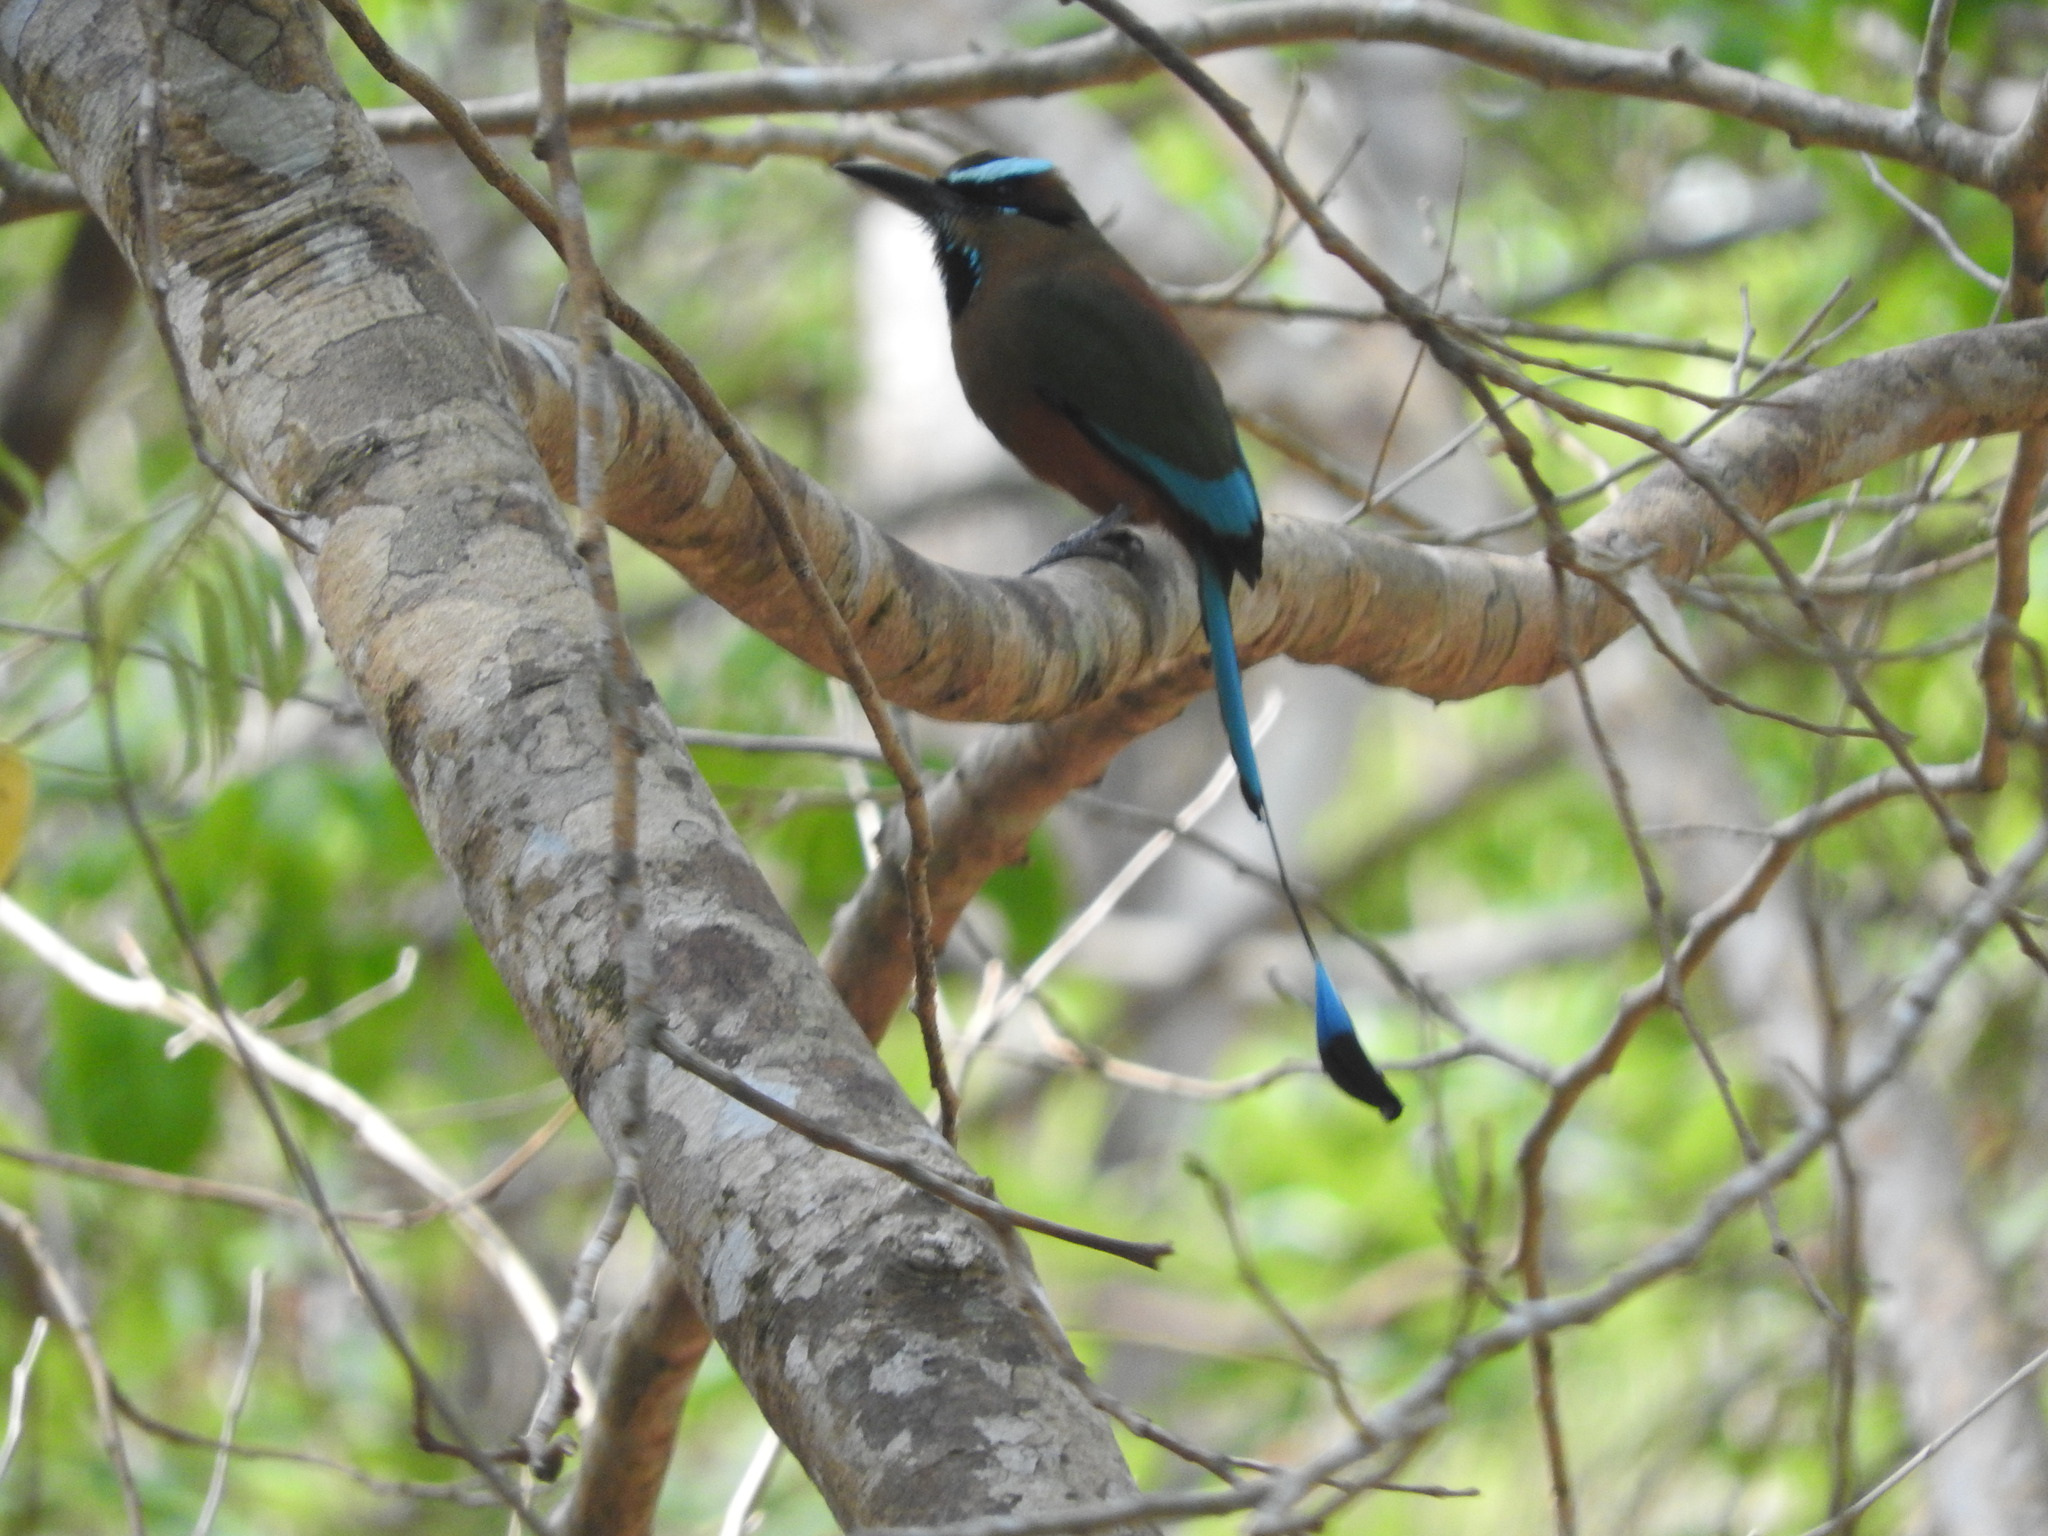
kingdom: Animalia
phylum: Chordata
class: Aves
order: Coraciiformes
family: Momotidae
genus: Eumomota
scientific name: Eumomota superciliosa
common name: Turquoise-browed motmot
